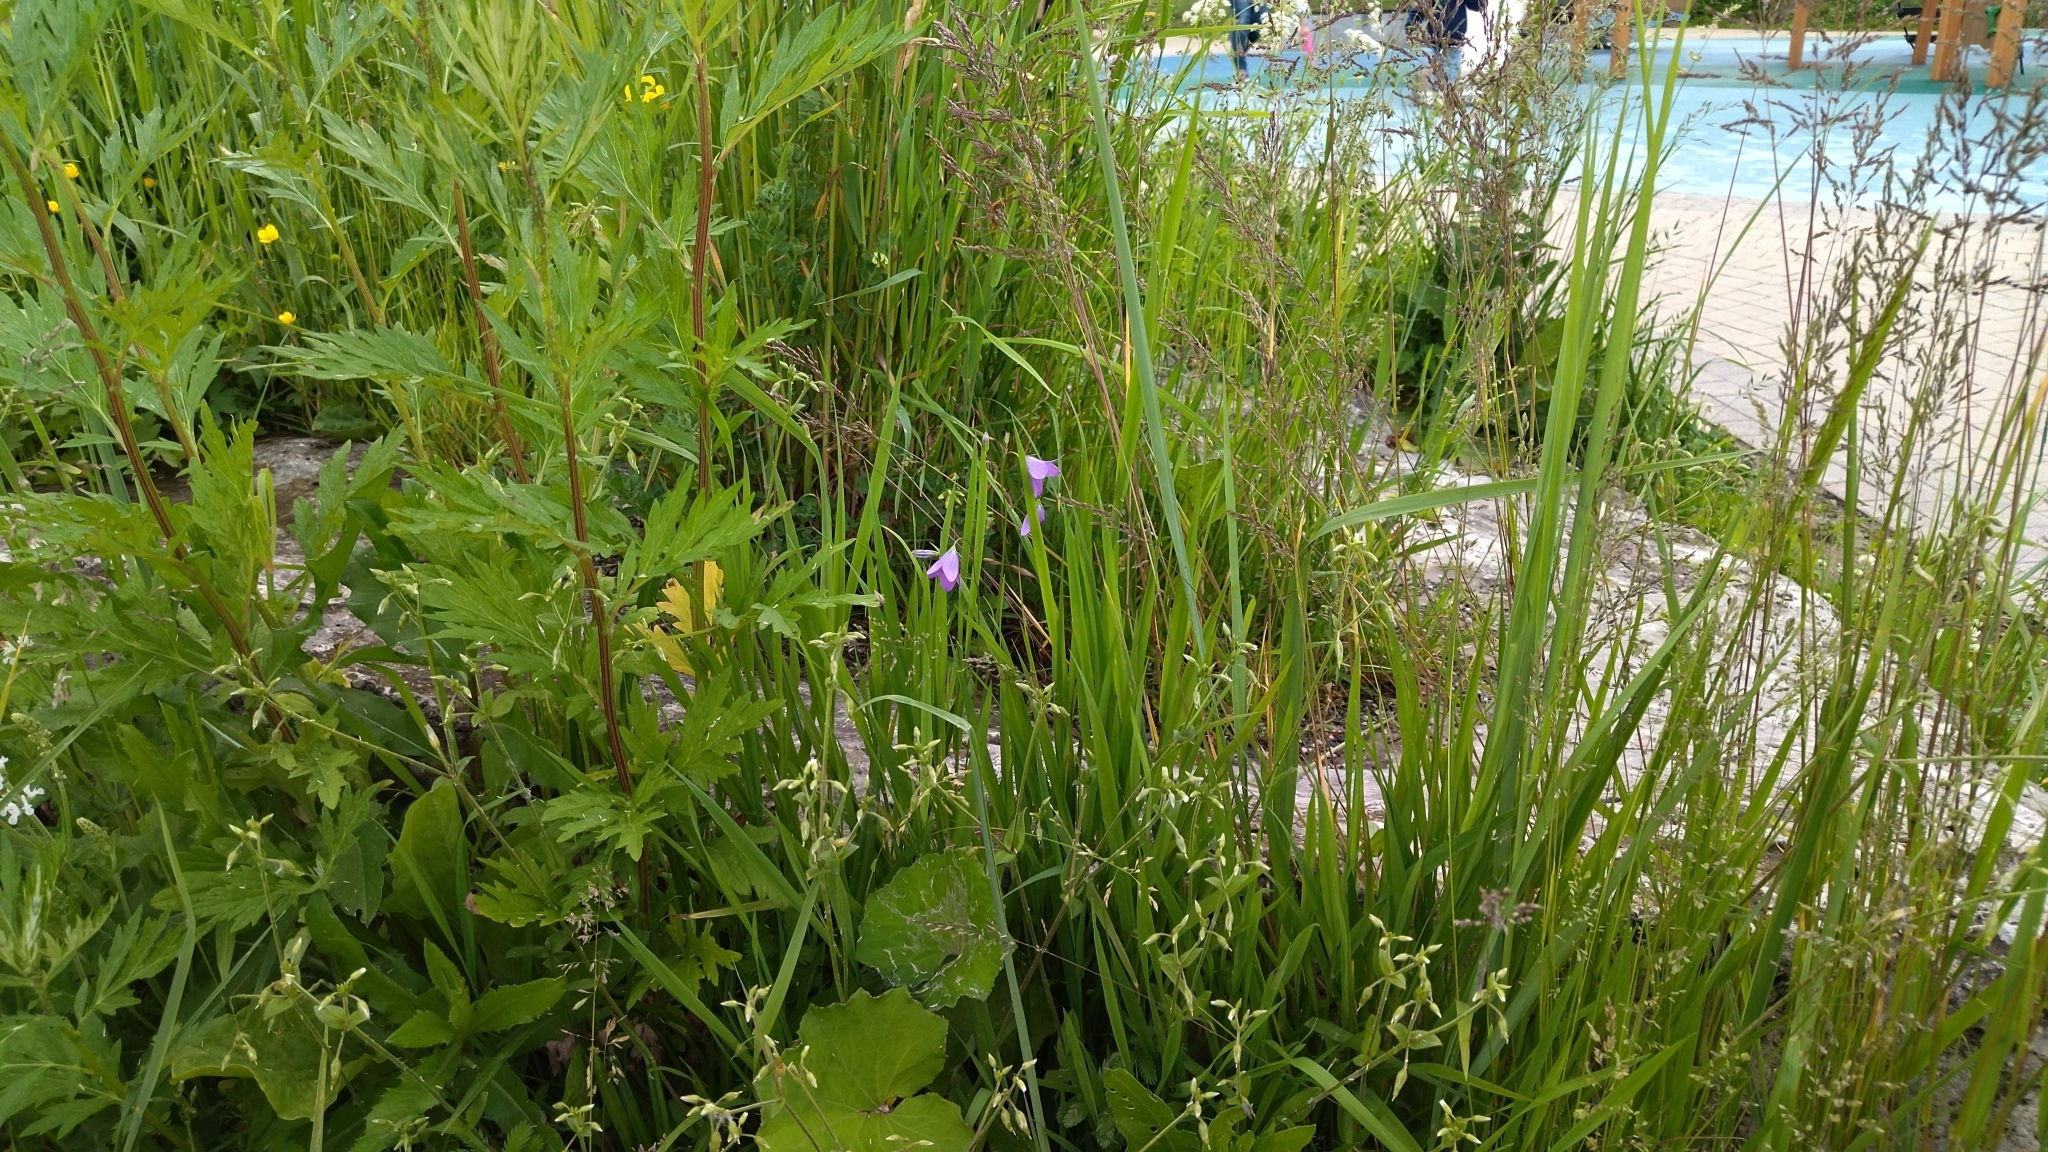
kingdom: Plantae
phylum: Tracheophyta
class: Magnoliopsida
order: Asterales
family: Campanulaceae
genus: Campanula
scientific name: Campanula patula
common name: Spreading bellflower
